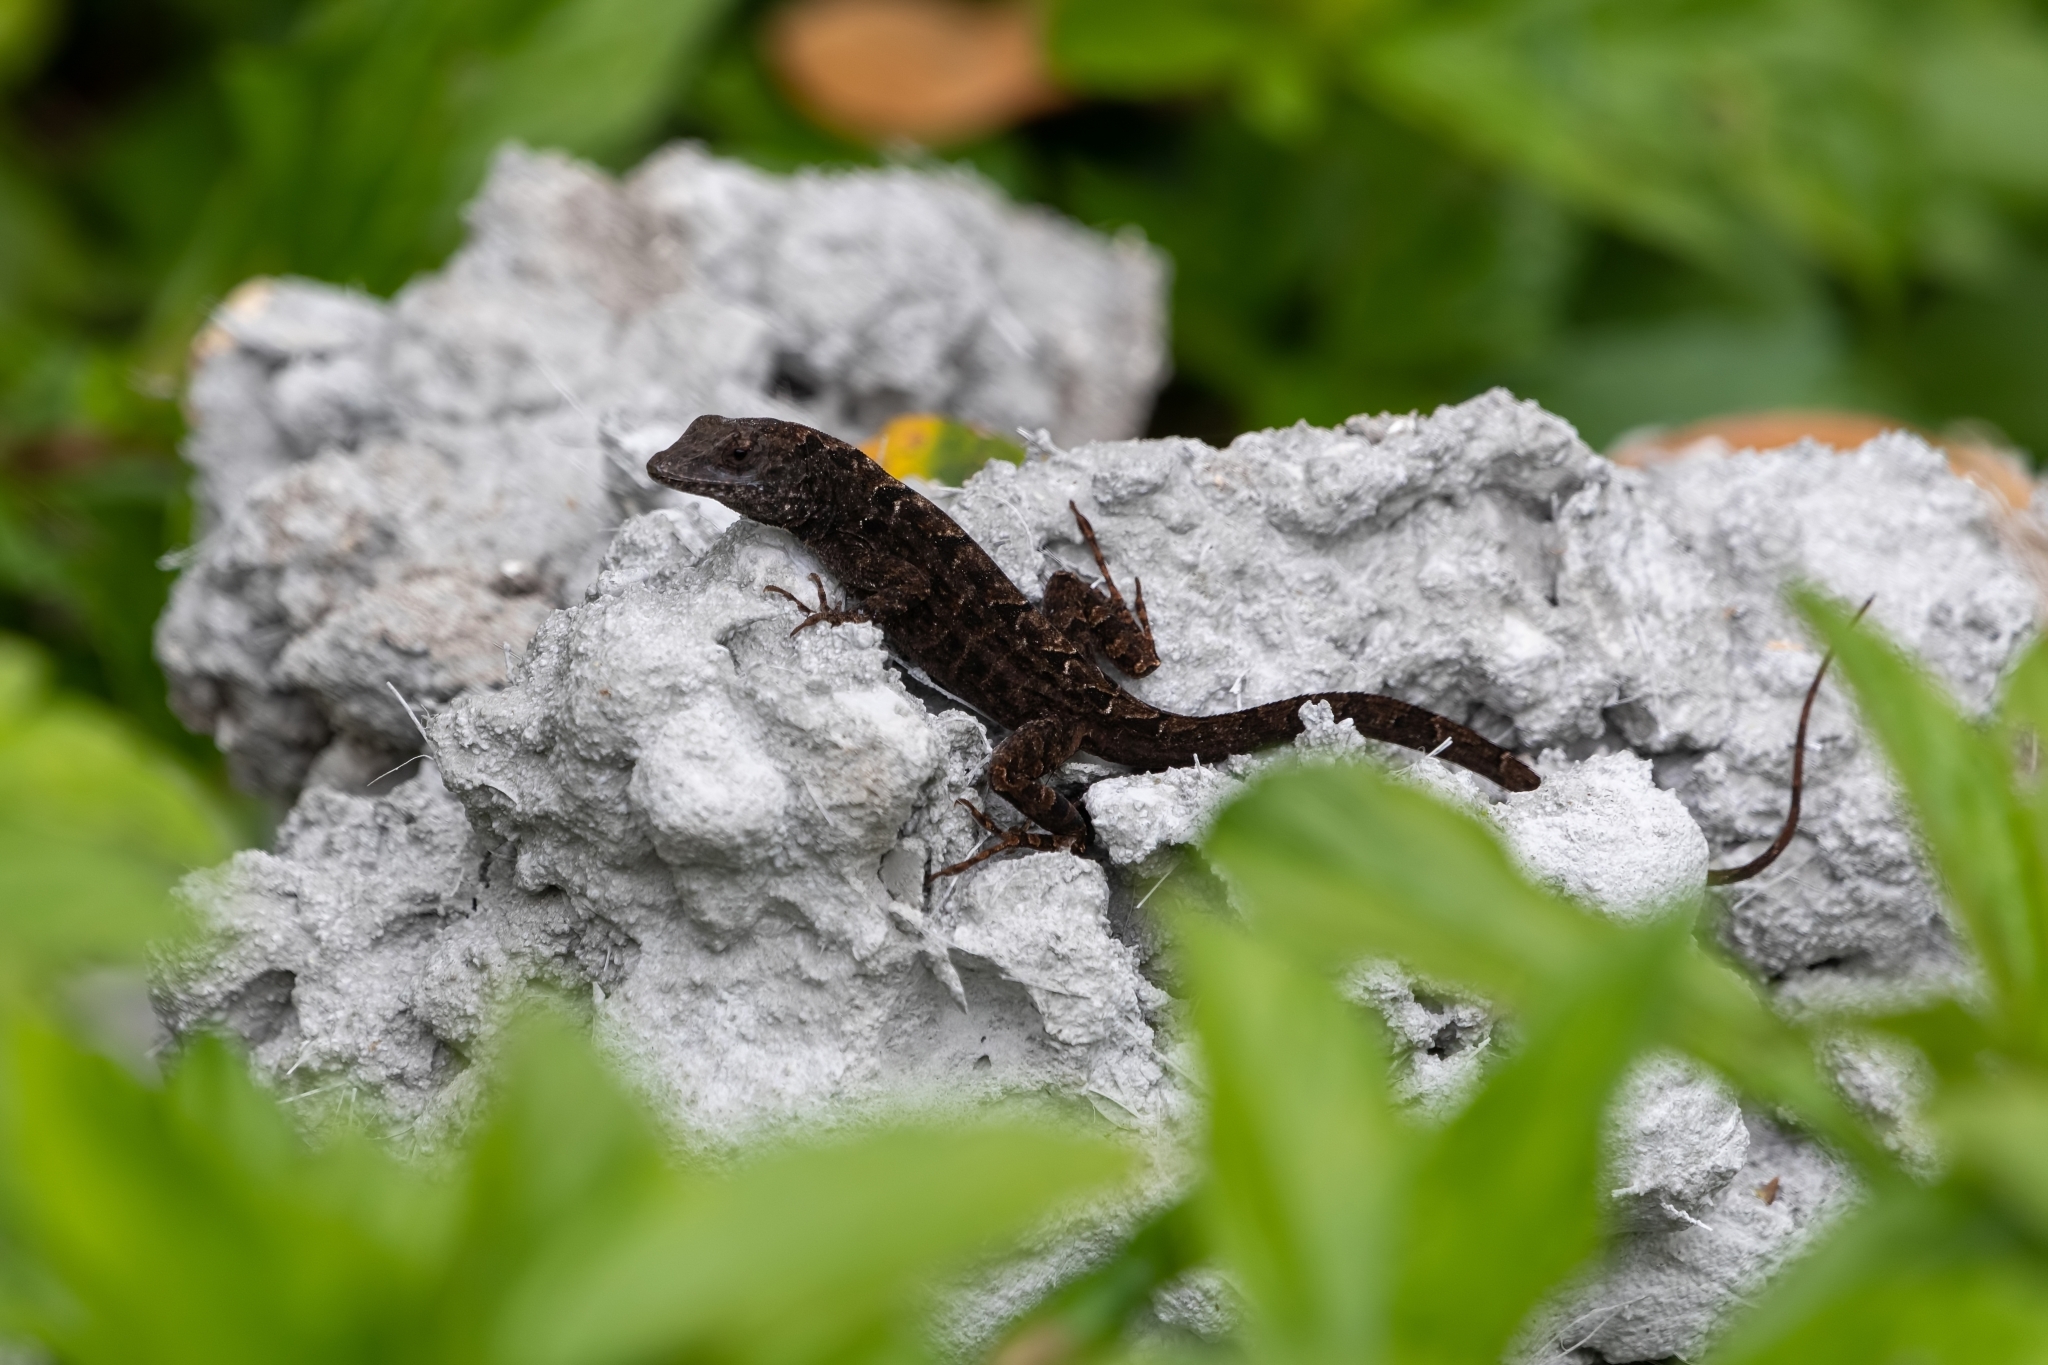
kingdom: Animalia
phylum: Chordata
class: Squamata
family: Dactyloidae
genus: Anolis
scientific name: Anolis sagrei
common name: Brown anole
